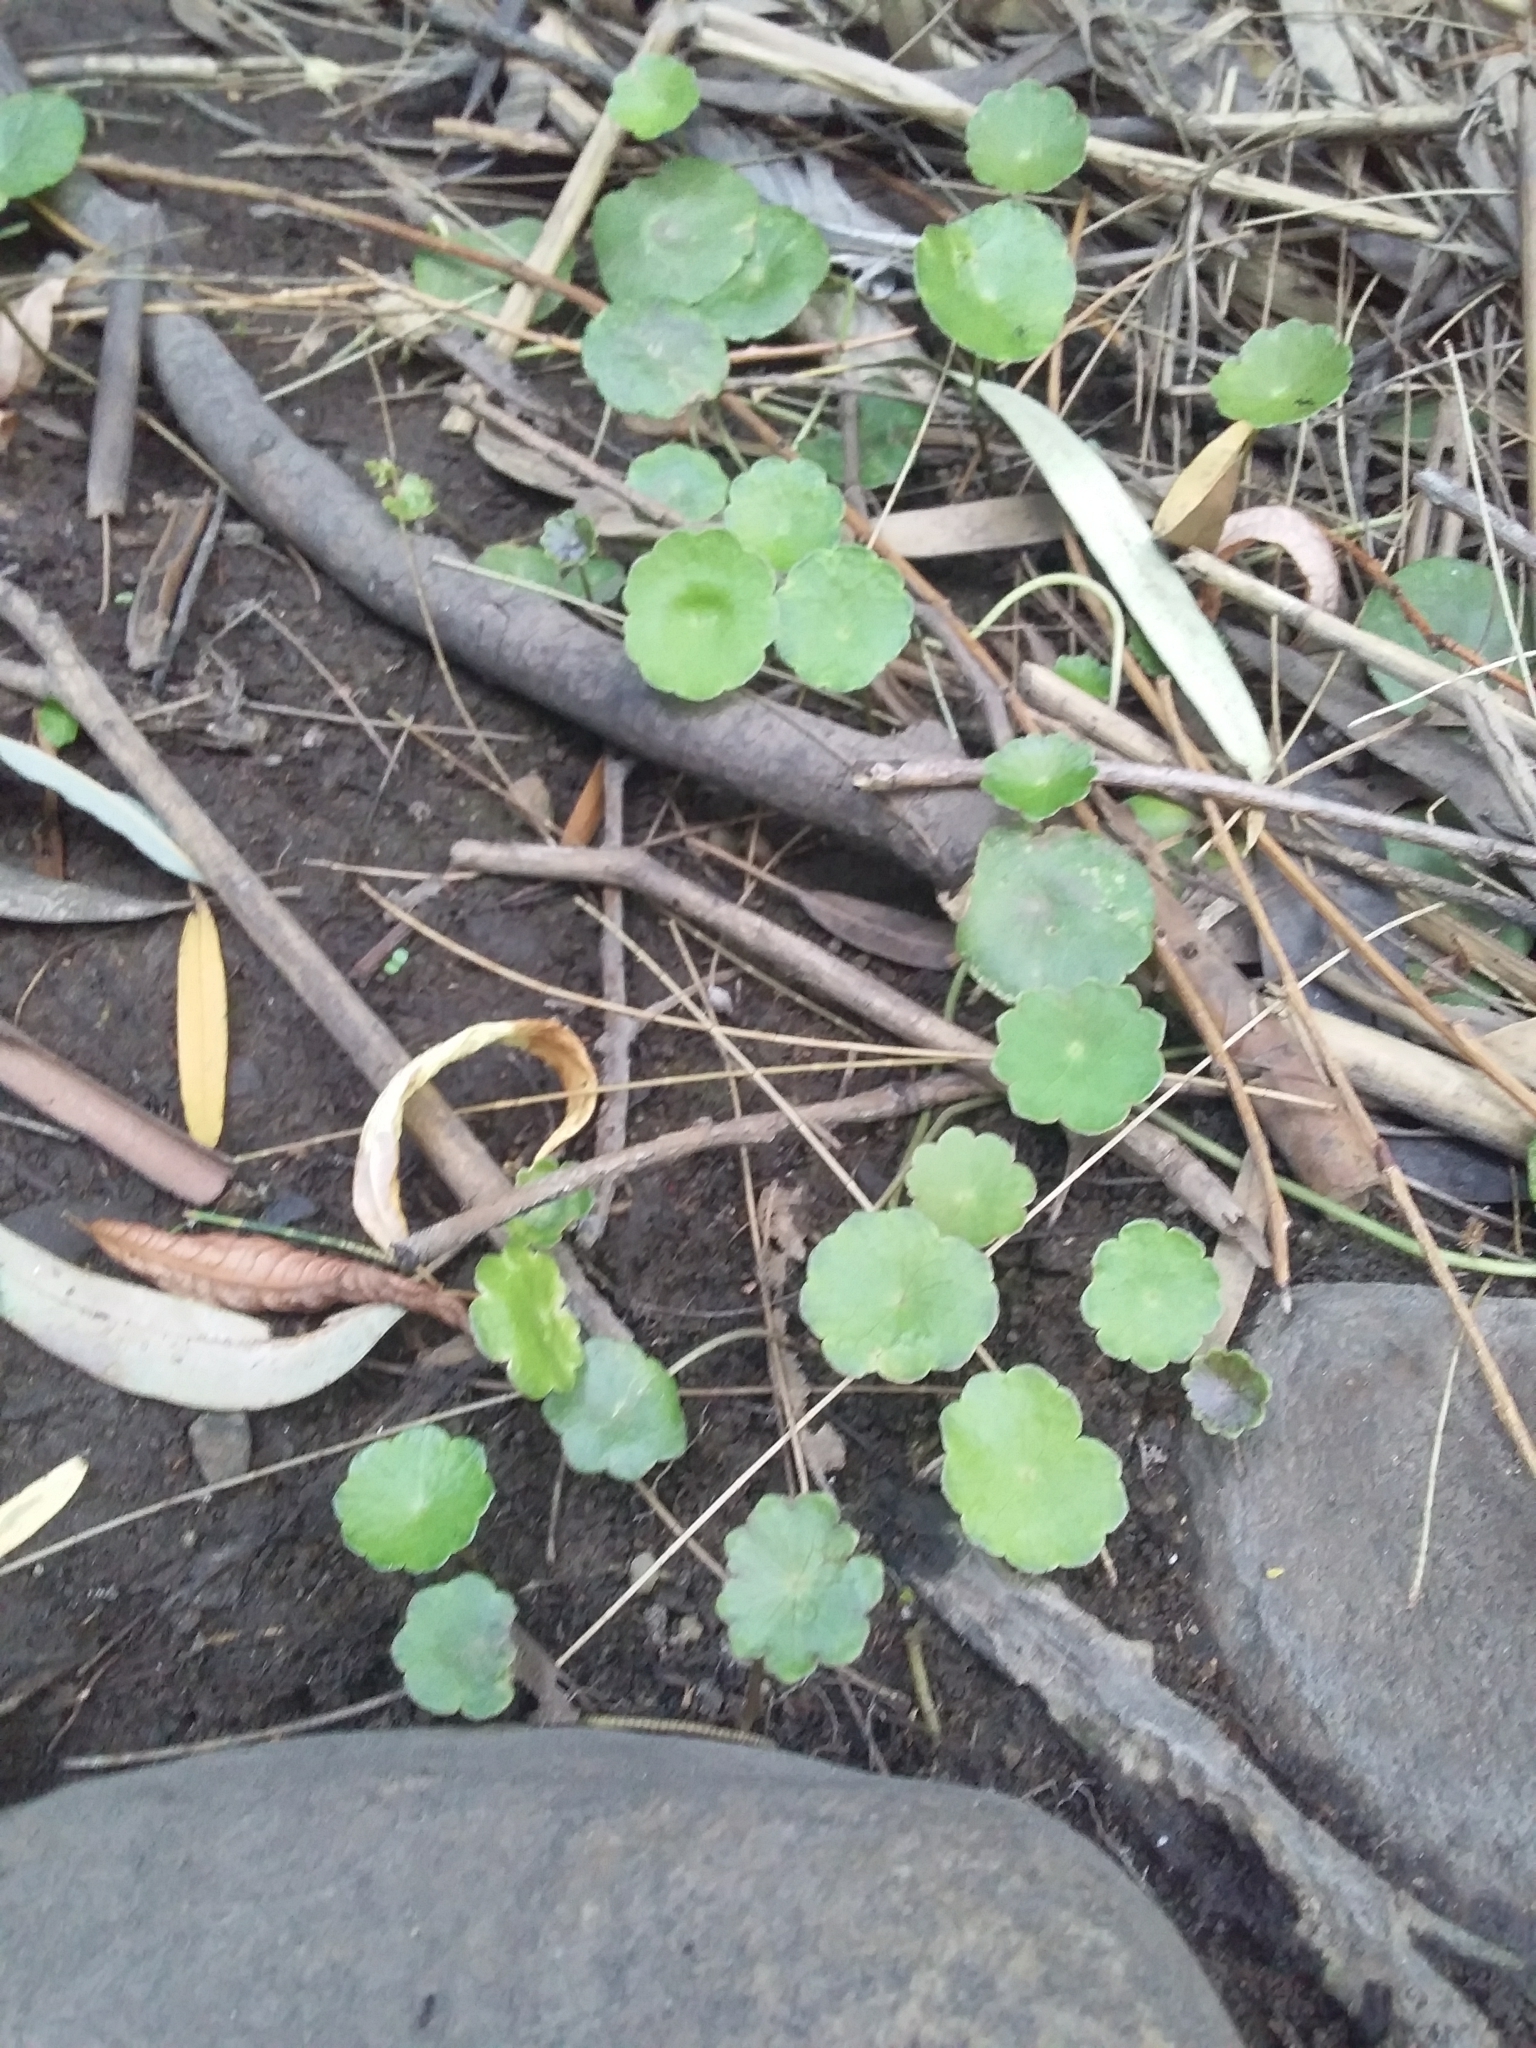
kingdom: Plantae
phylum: Tracheophyta
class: Magnoliopsida
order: Apiales
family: Araliaceae
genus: Hydrocotyle
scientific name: Hydrocotyle verticillata
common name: Whorled marshpennywort
